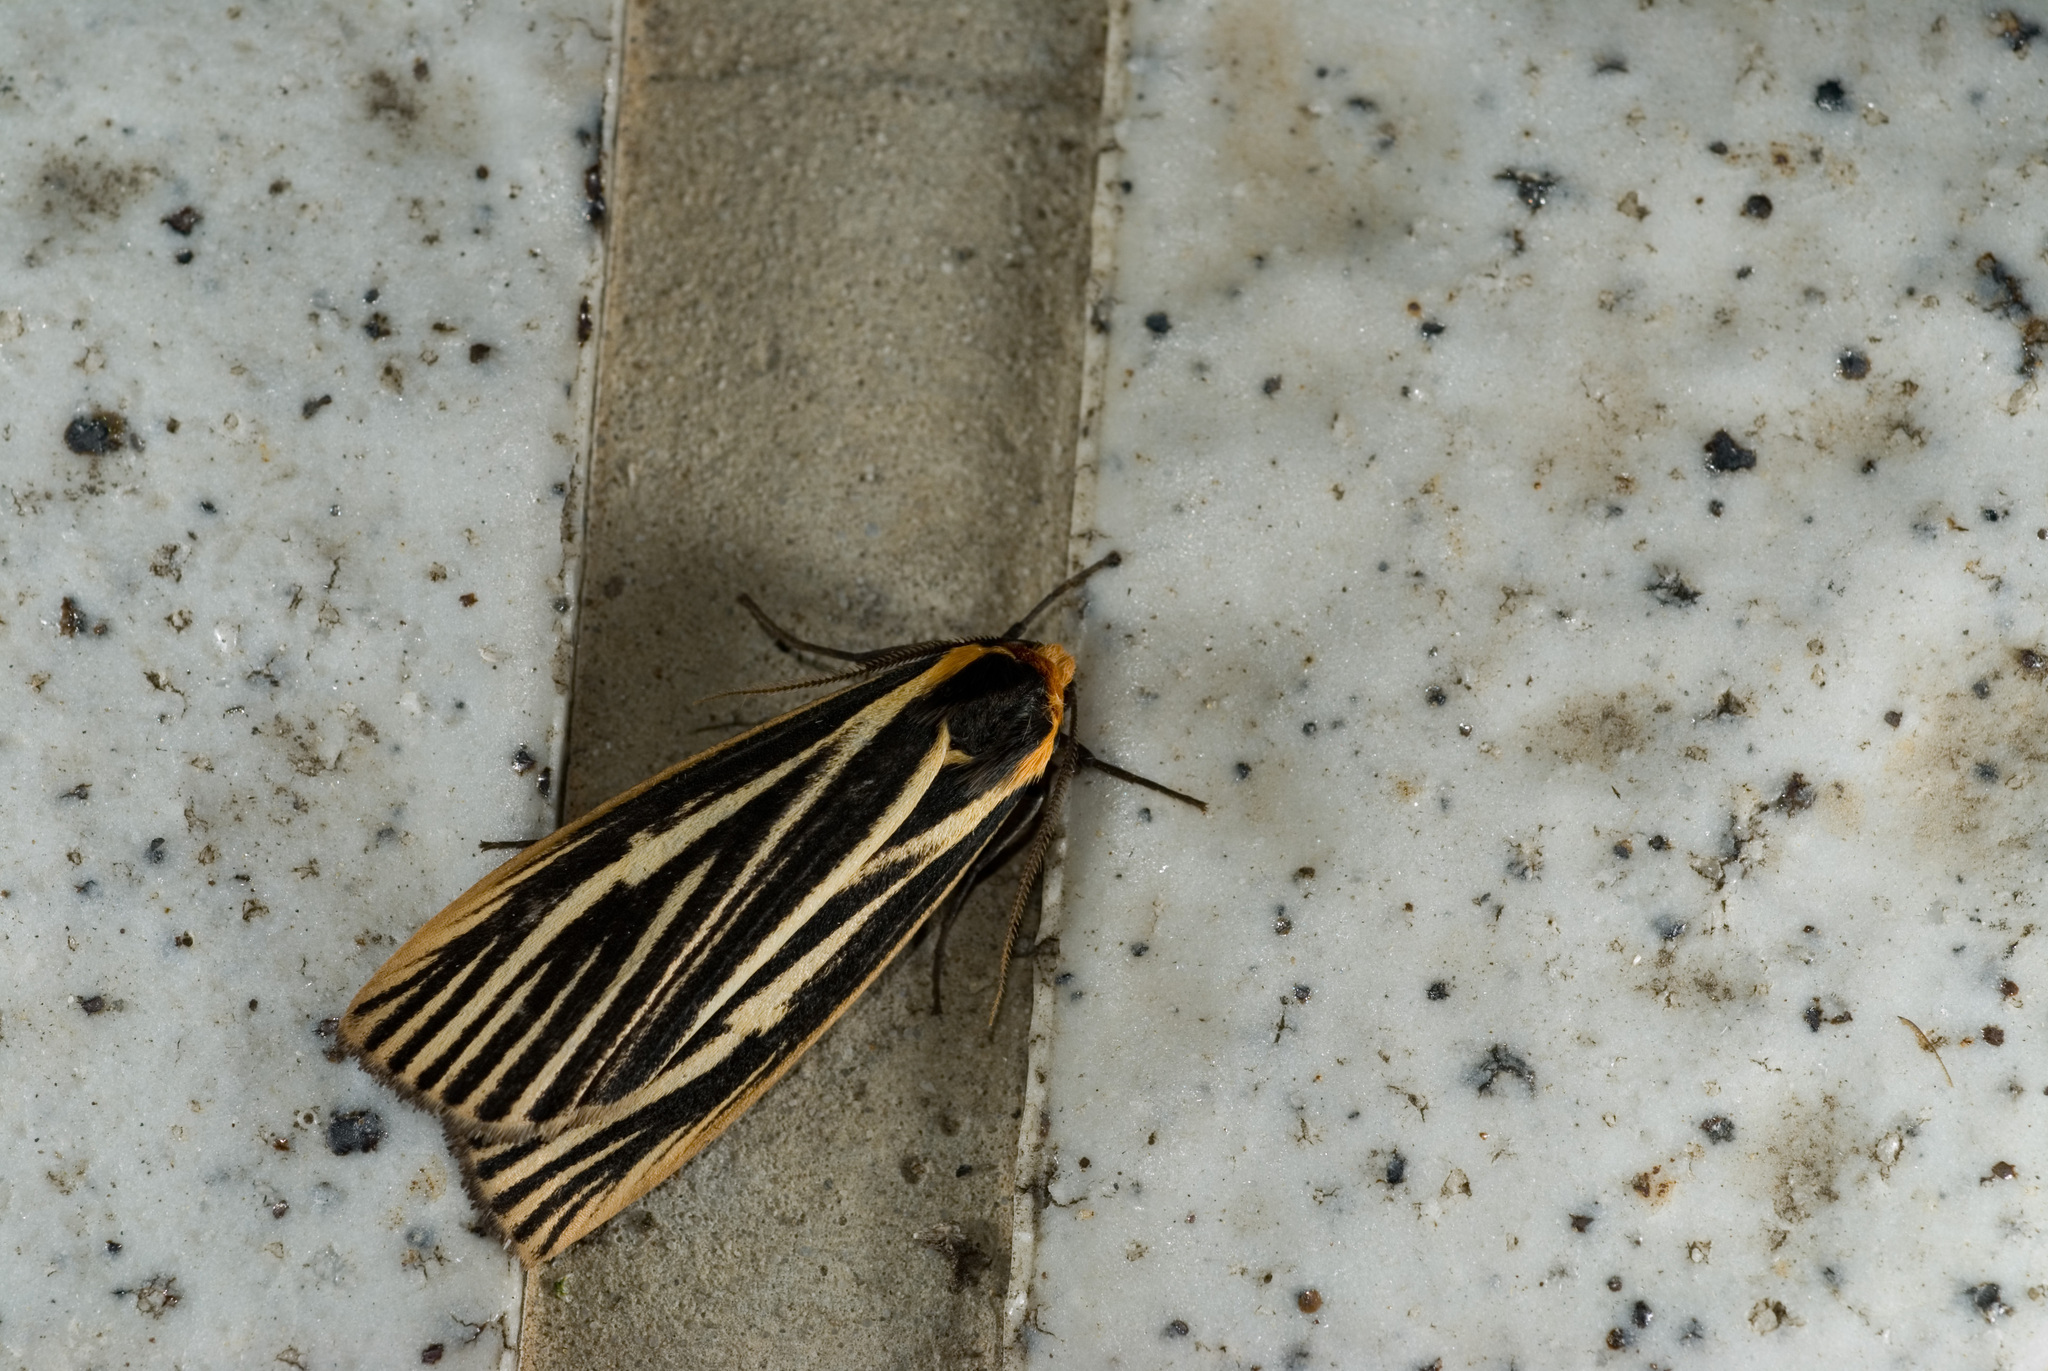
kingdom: Animalia
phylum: Arthropoda
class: Insecta
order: Lepidoptera
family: Erebidae
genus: Agylla
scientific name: Agylla pulchristriata
